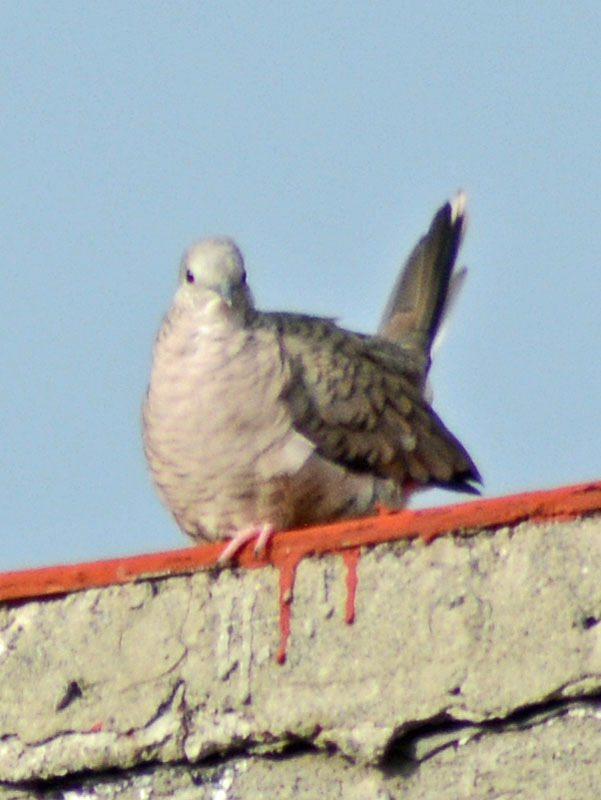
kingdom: Animalia
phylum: Chordata
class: Aves
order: Columbiformes
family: Columbidae
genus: Columbina
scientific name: Columbina inca
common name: Inca dove
